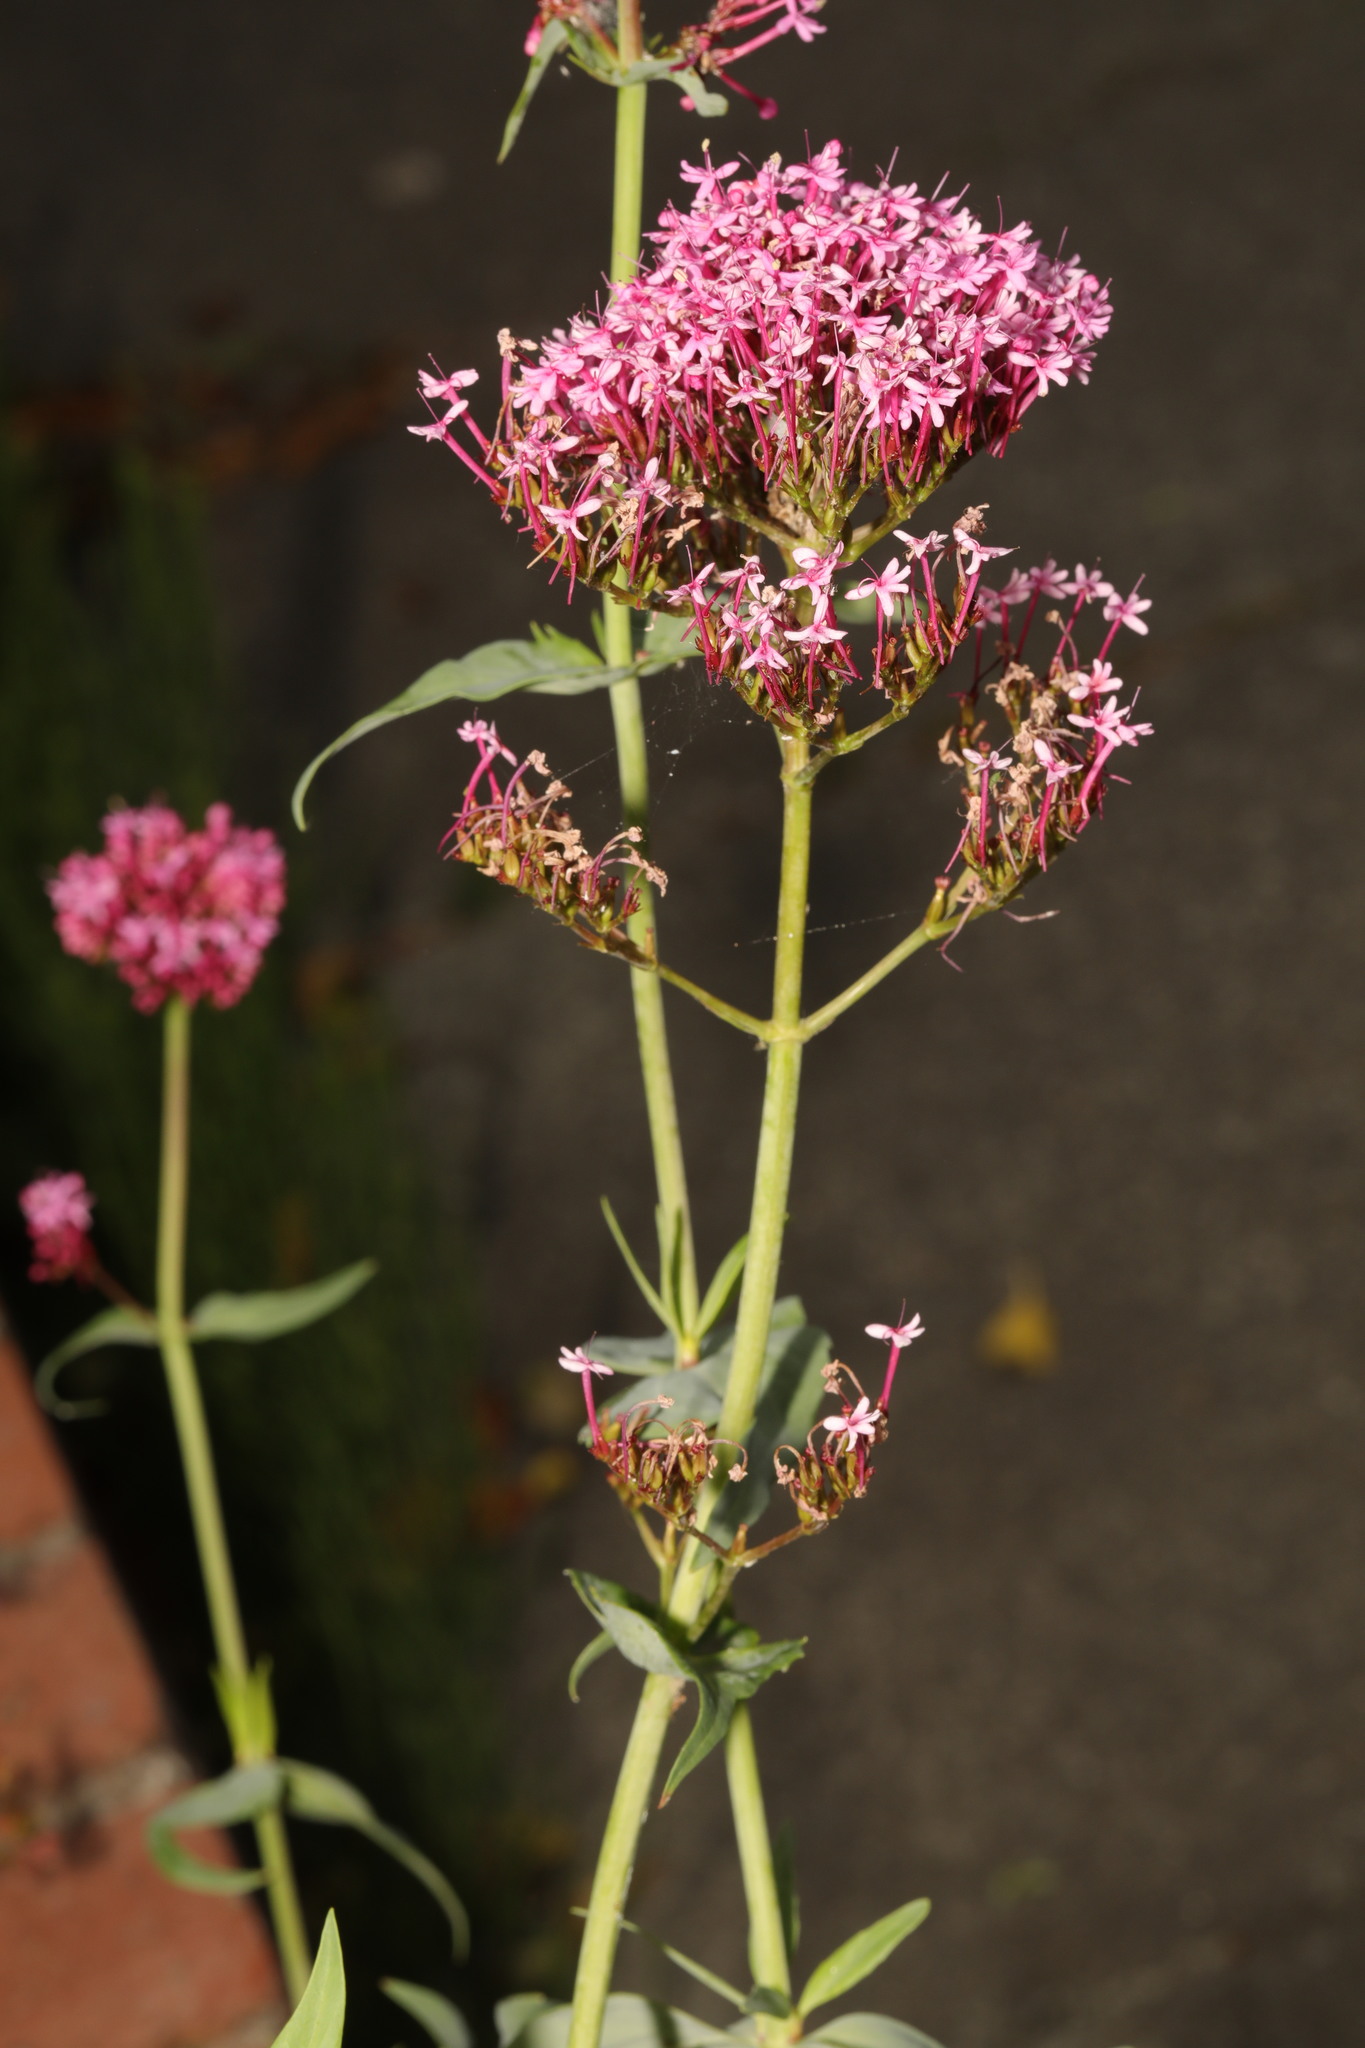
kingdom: Plantae
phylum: Tracheophyta
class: Magnoliopsida
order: Dipsacales
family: Caprifoliaceae
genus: Centranthus
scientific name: Centranthus ruber
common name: Red valerian
